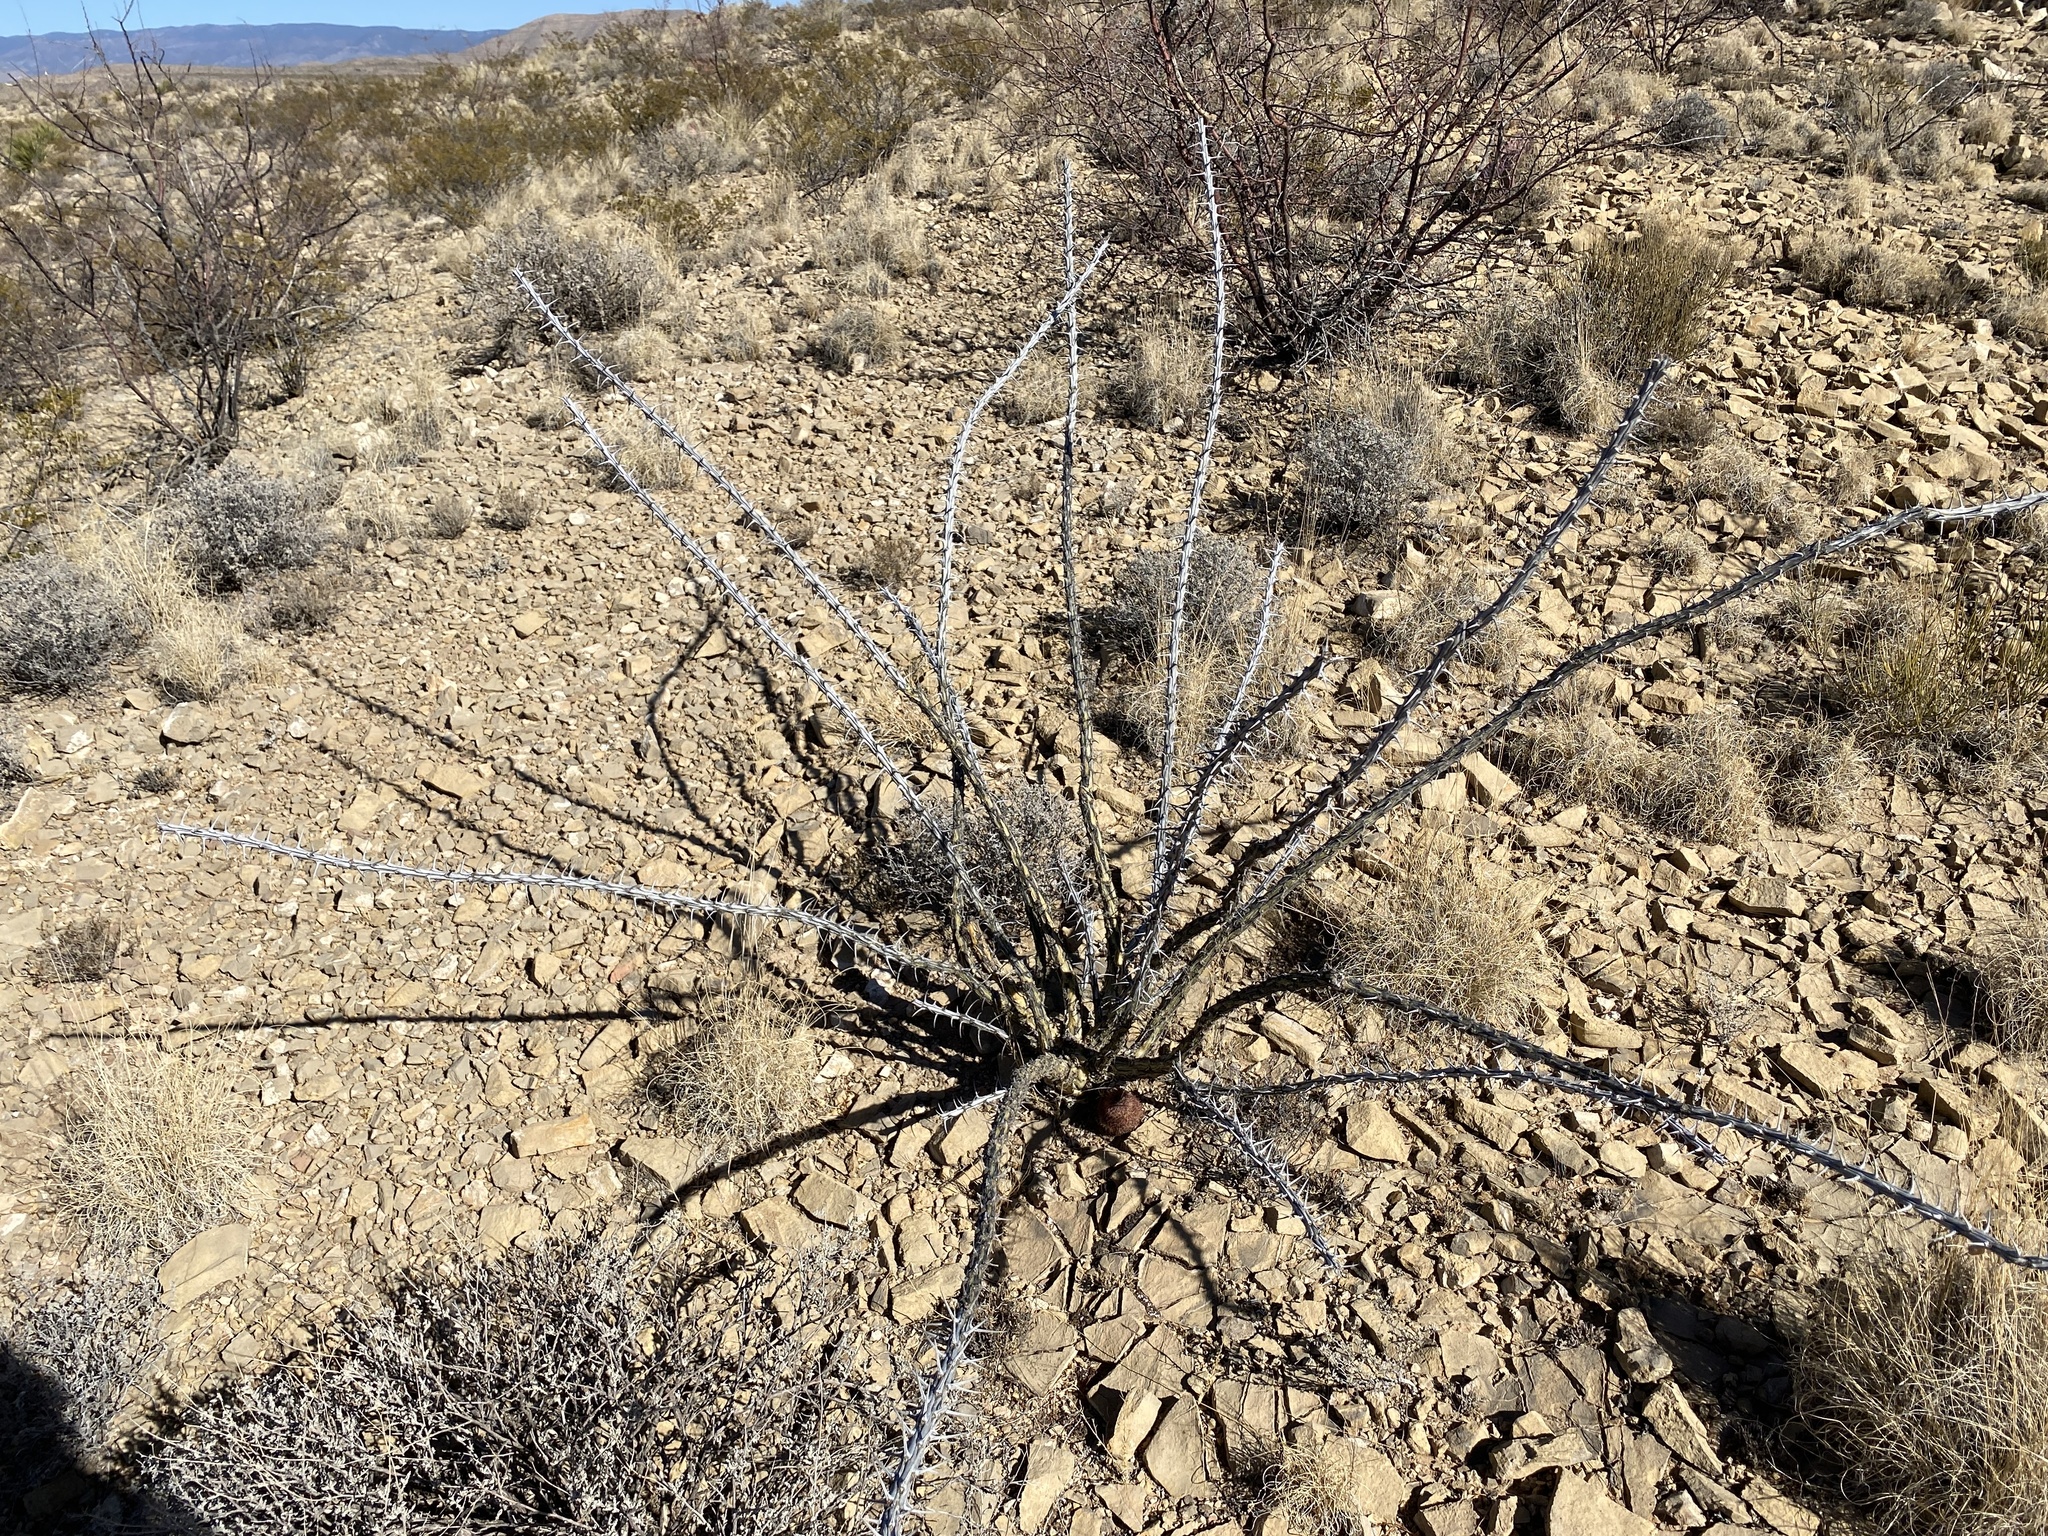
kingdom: Plantae
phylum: Tracheophyta
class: Magnoliopsida
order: Ericales
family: Fouquieriaceae
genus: Fouquieria
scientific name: Fouquieria splendens
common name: Vine-cactus
